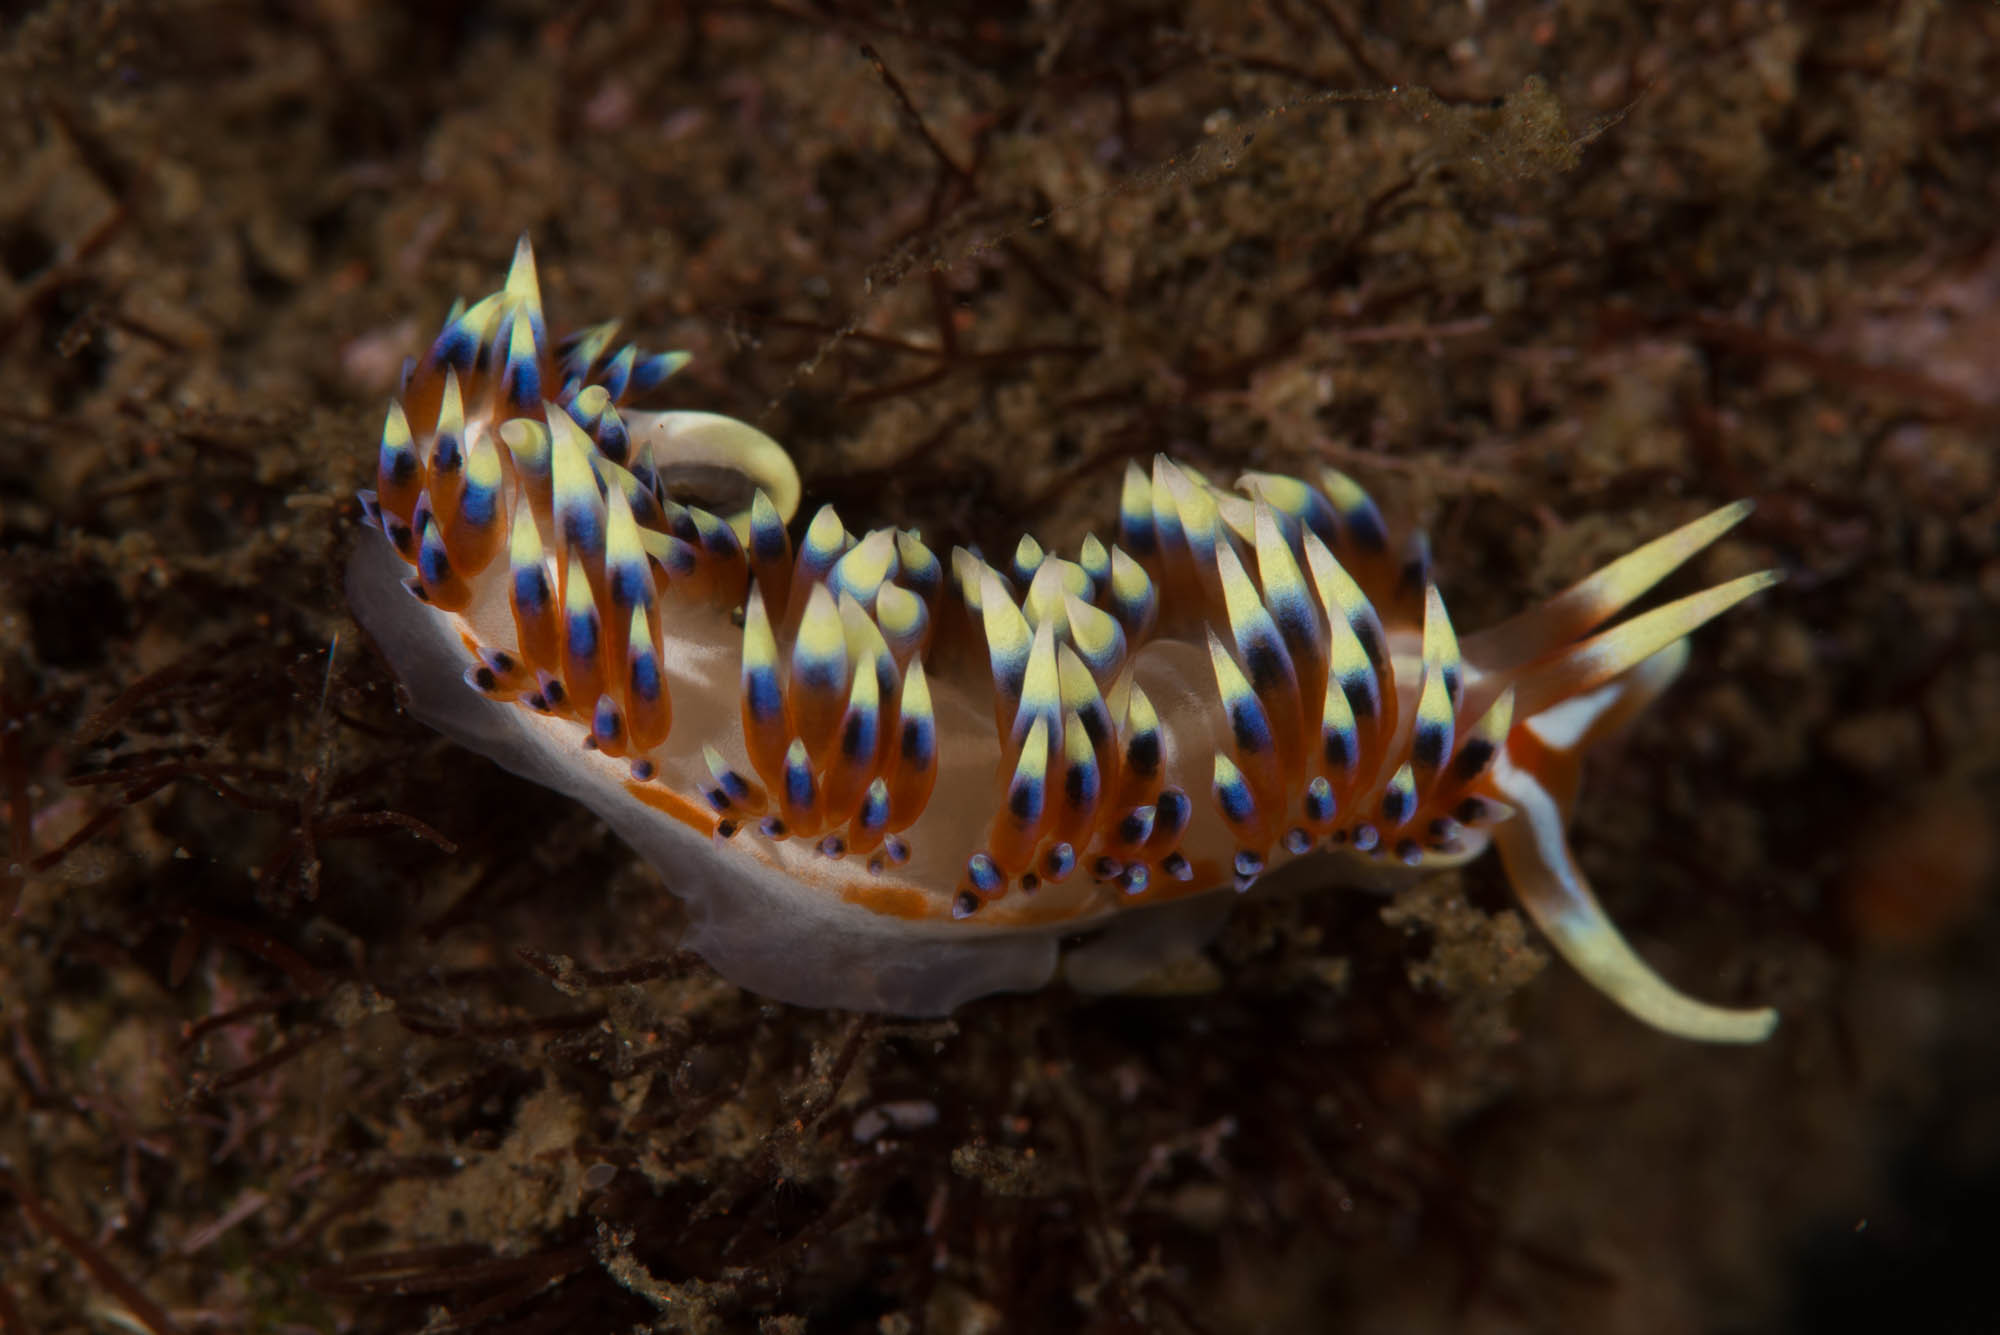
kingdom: Animalia
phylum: Mollusca
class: Gastropoda
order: Nudibranchia
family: Facelinidae
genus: Caloria
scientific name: Caloria indica
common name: Sea slug
